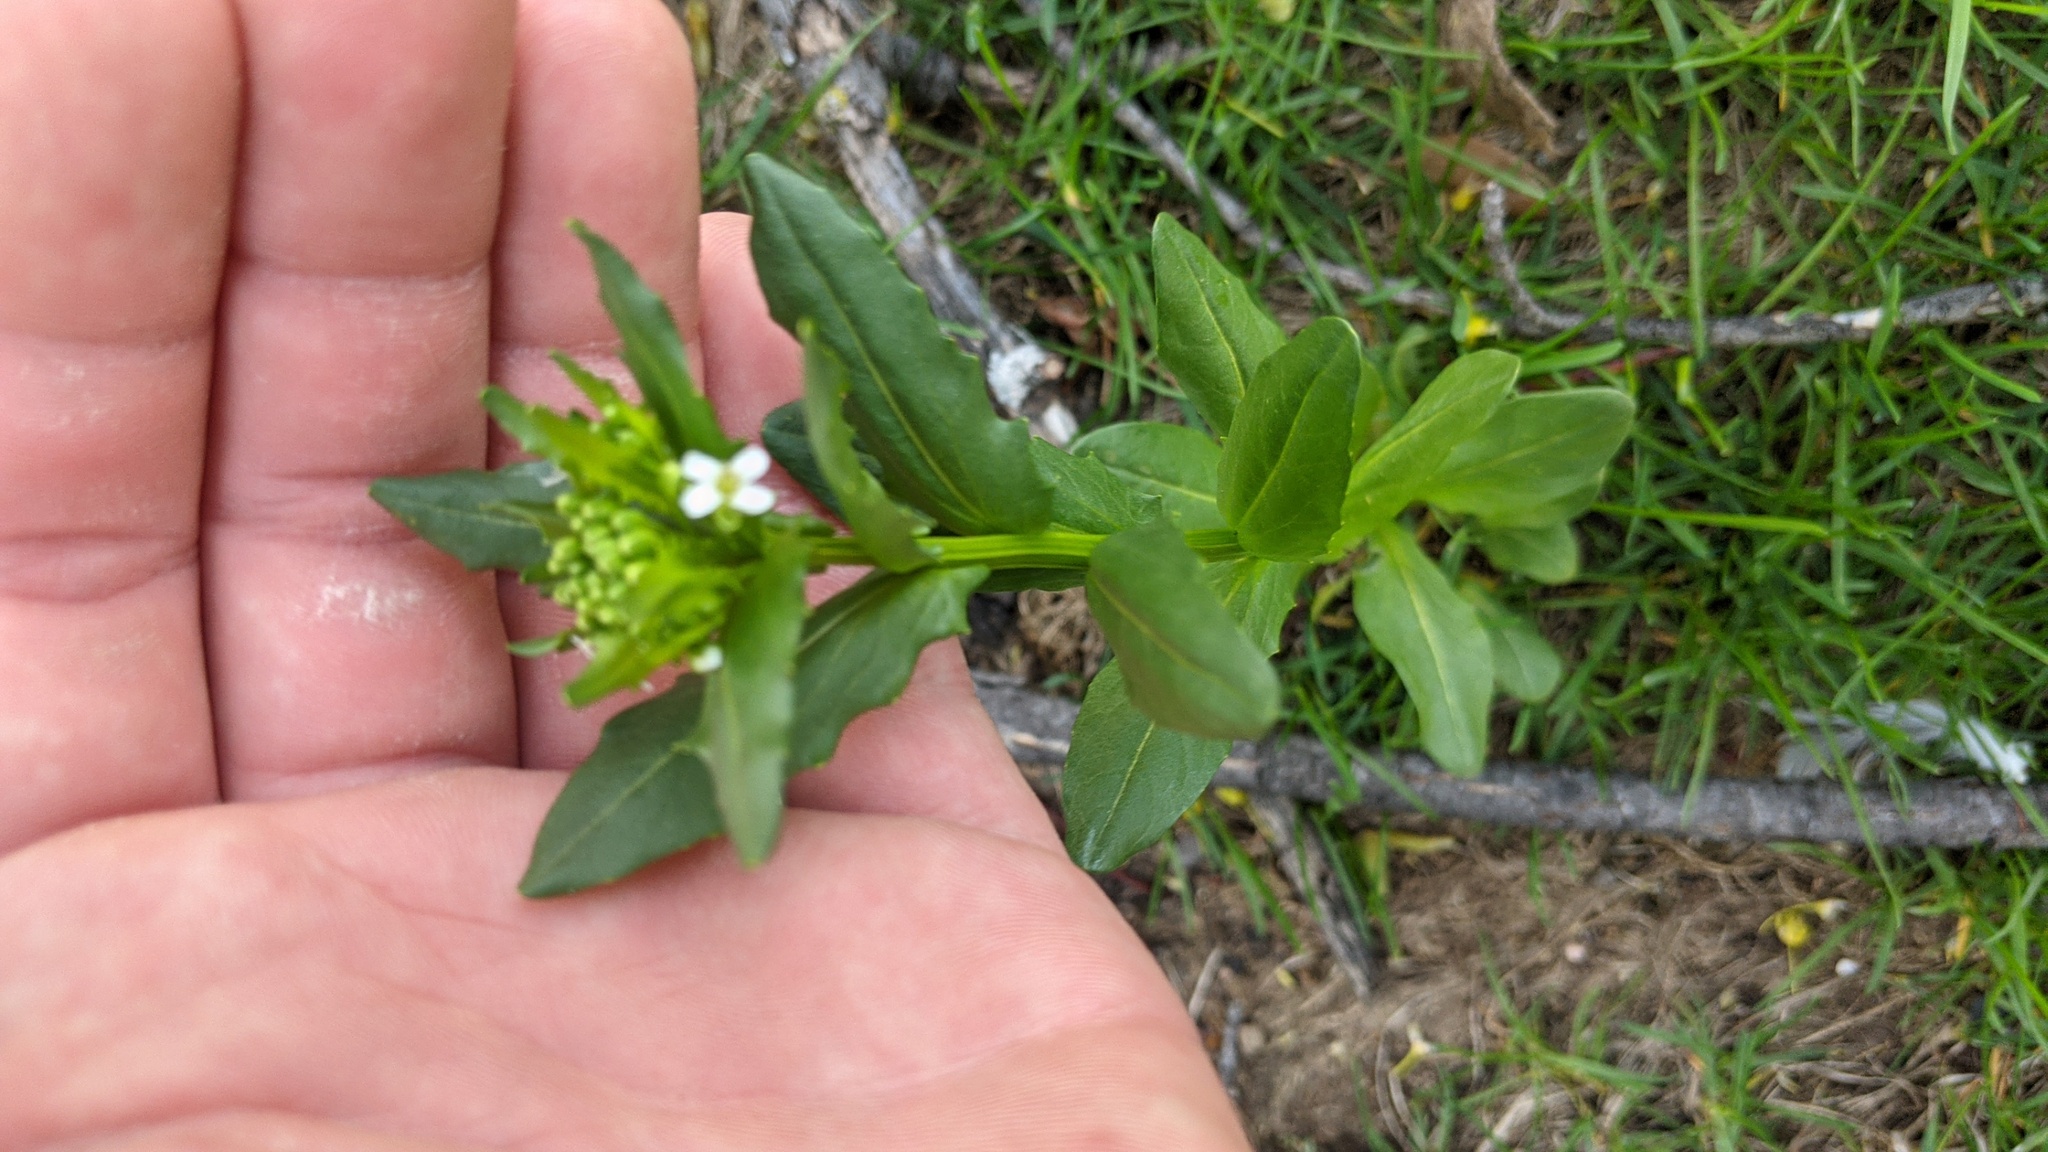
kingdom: Plantae
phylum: Tracheophyta
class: Magnoliopsida
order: Brassicales
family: Brassicaceae
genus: Thlaspi
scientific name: Thlaspi arvense
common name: Field pennycress
